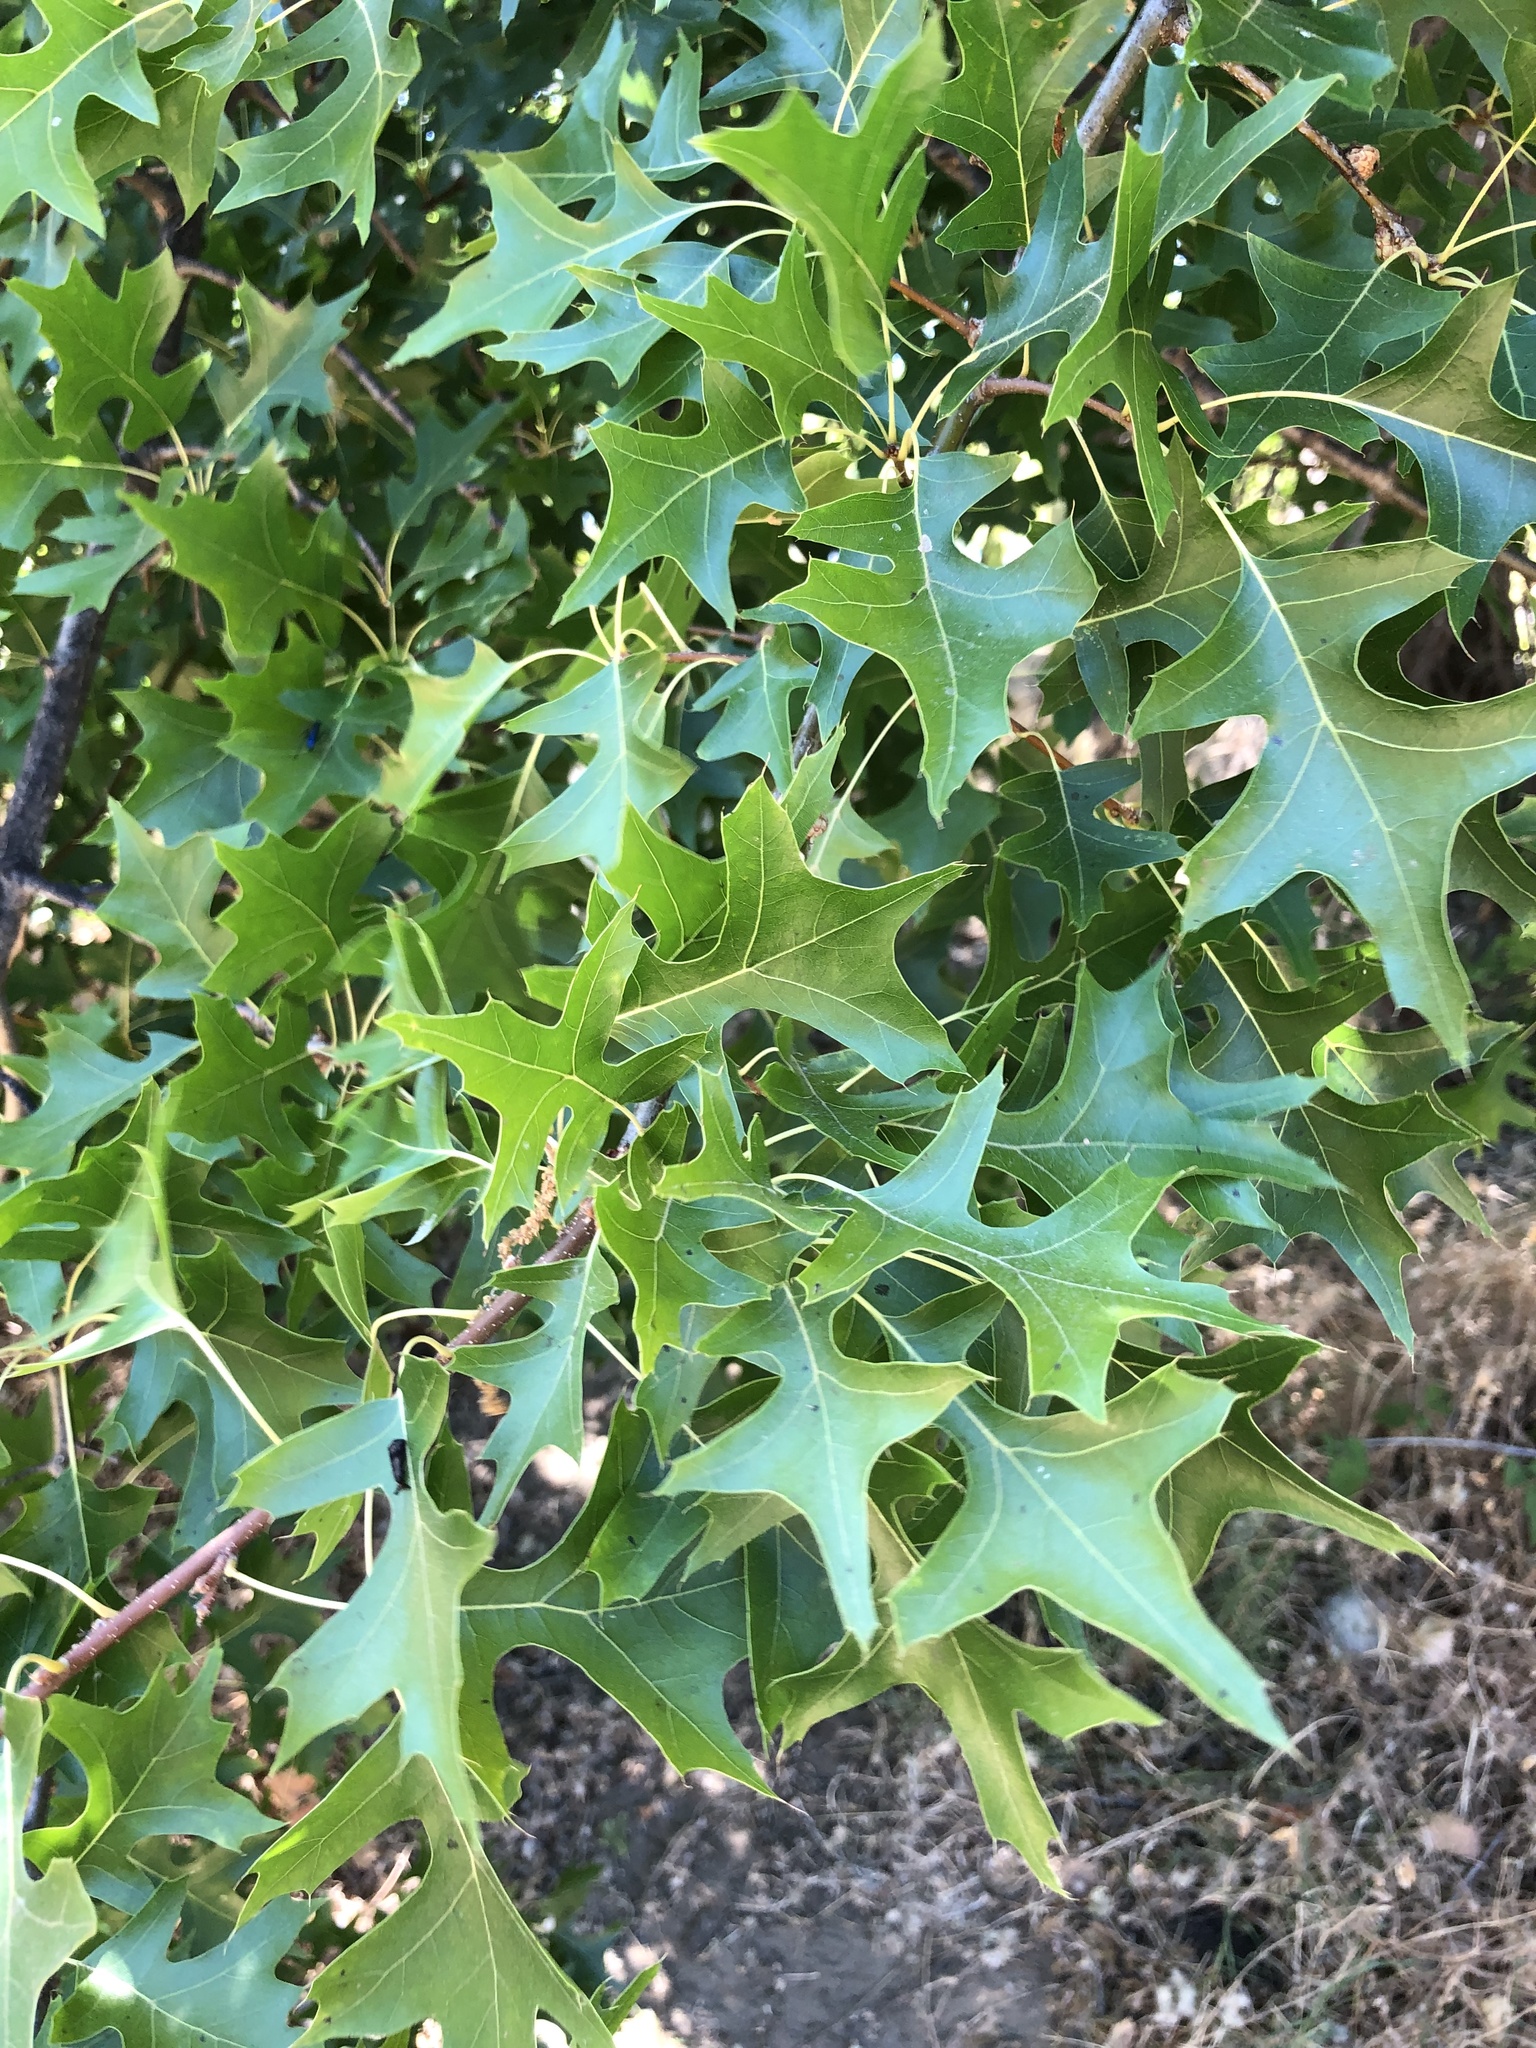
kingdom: Plantae
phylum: Tracheophyta
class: Magnoliopsida
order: Fagales
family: Fagaceae
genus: Quercus
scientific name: Quercus palustris
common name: Pin oak
